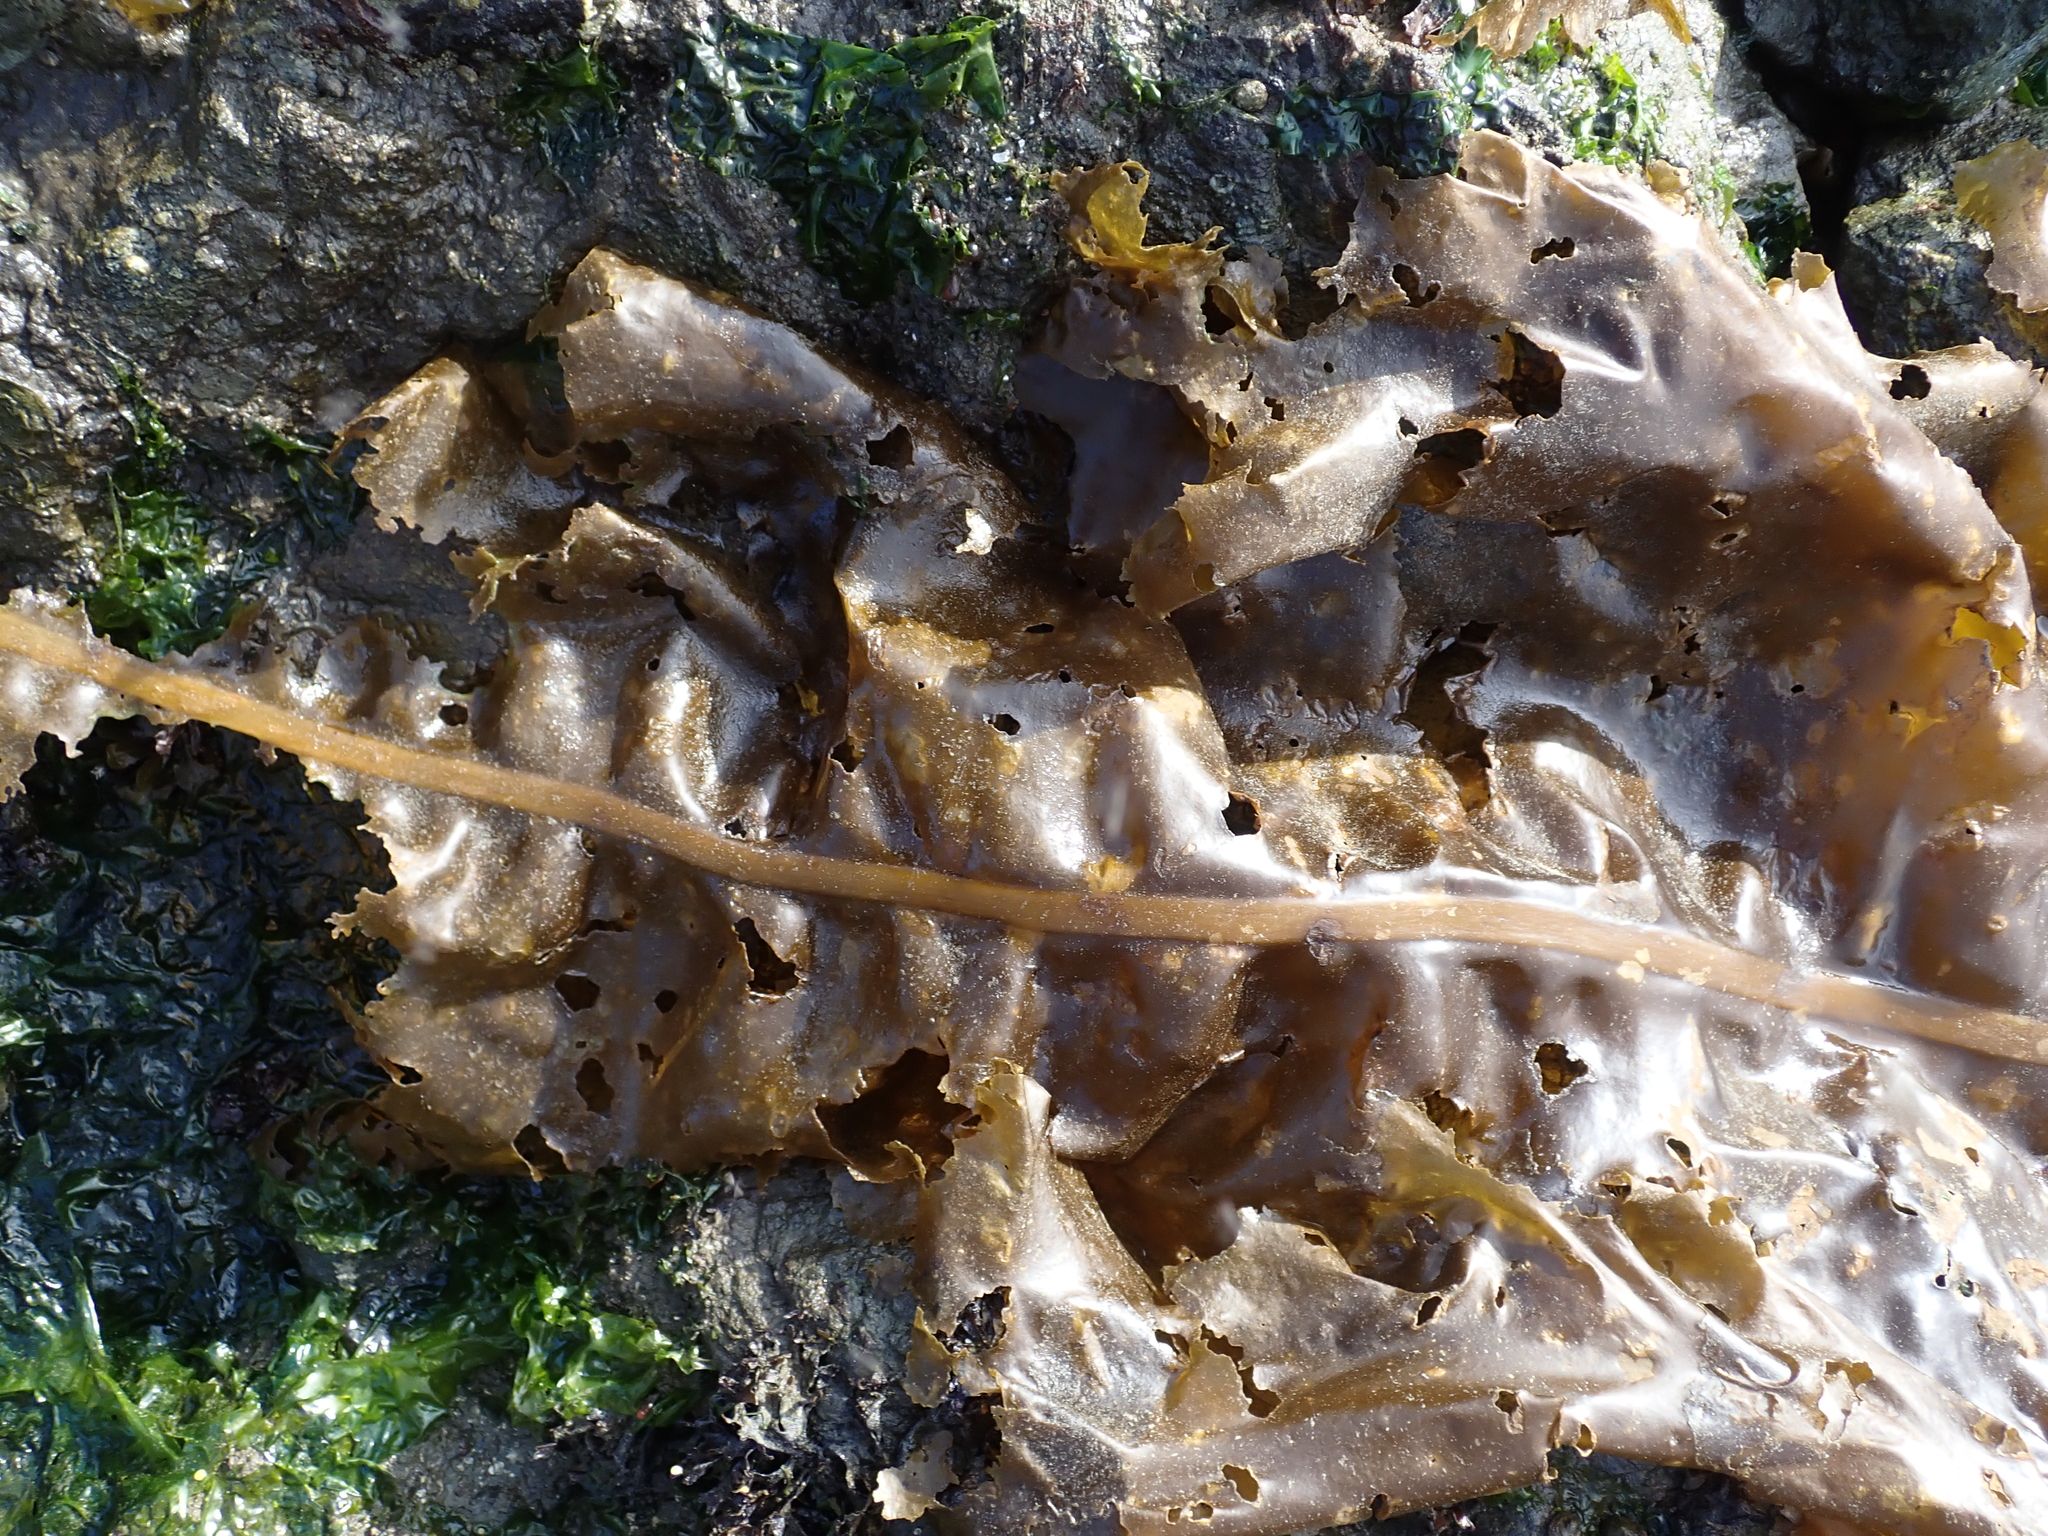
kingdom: Chromista
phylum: Ochrophyta
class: Phaeophyceae
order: Laminariales
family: Alariaceae
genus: Alaria
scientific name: Alaria marginata
